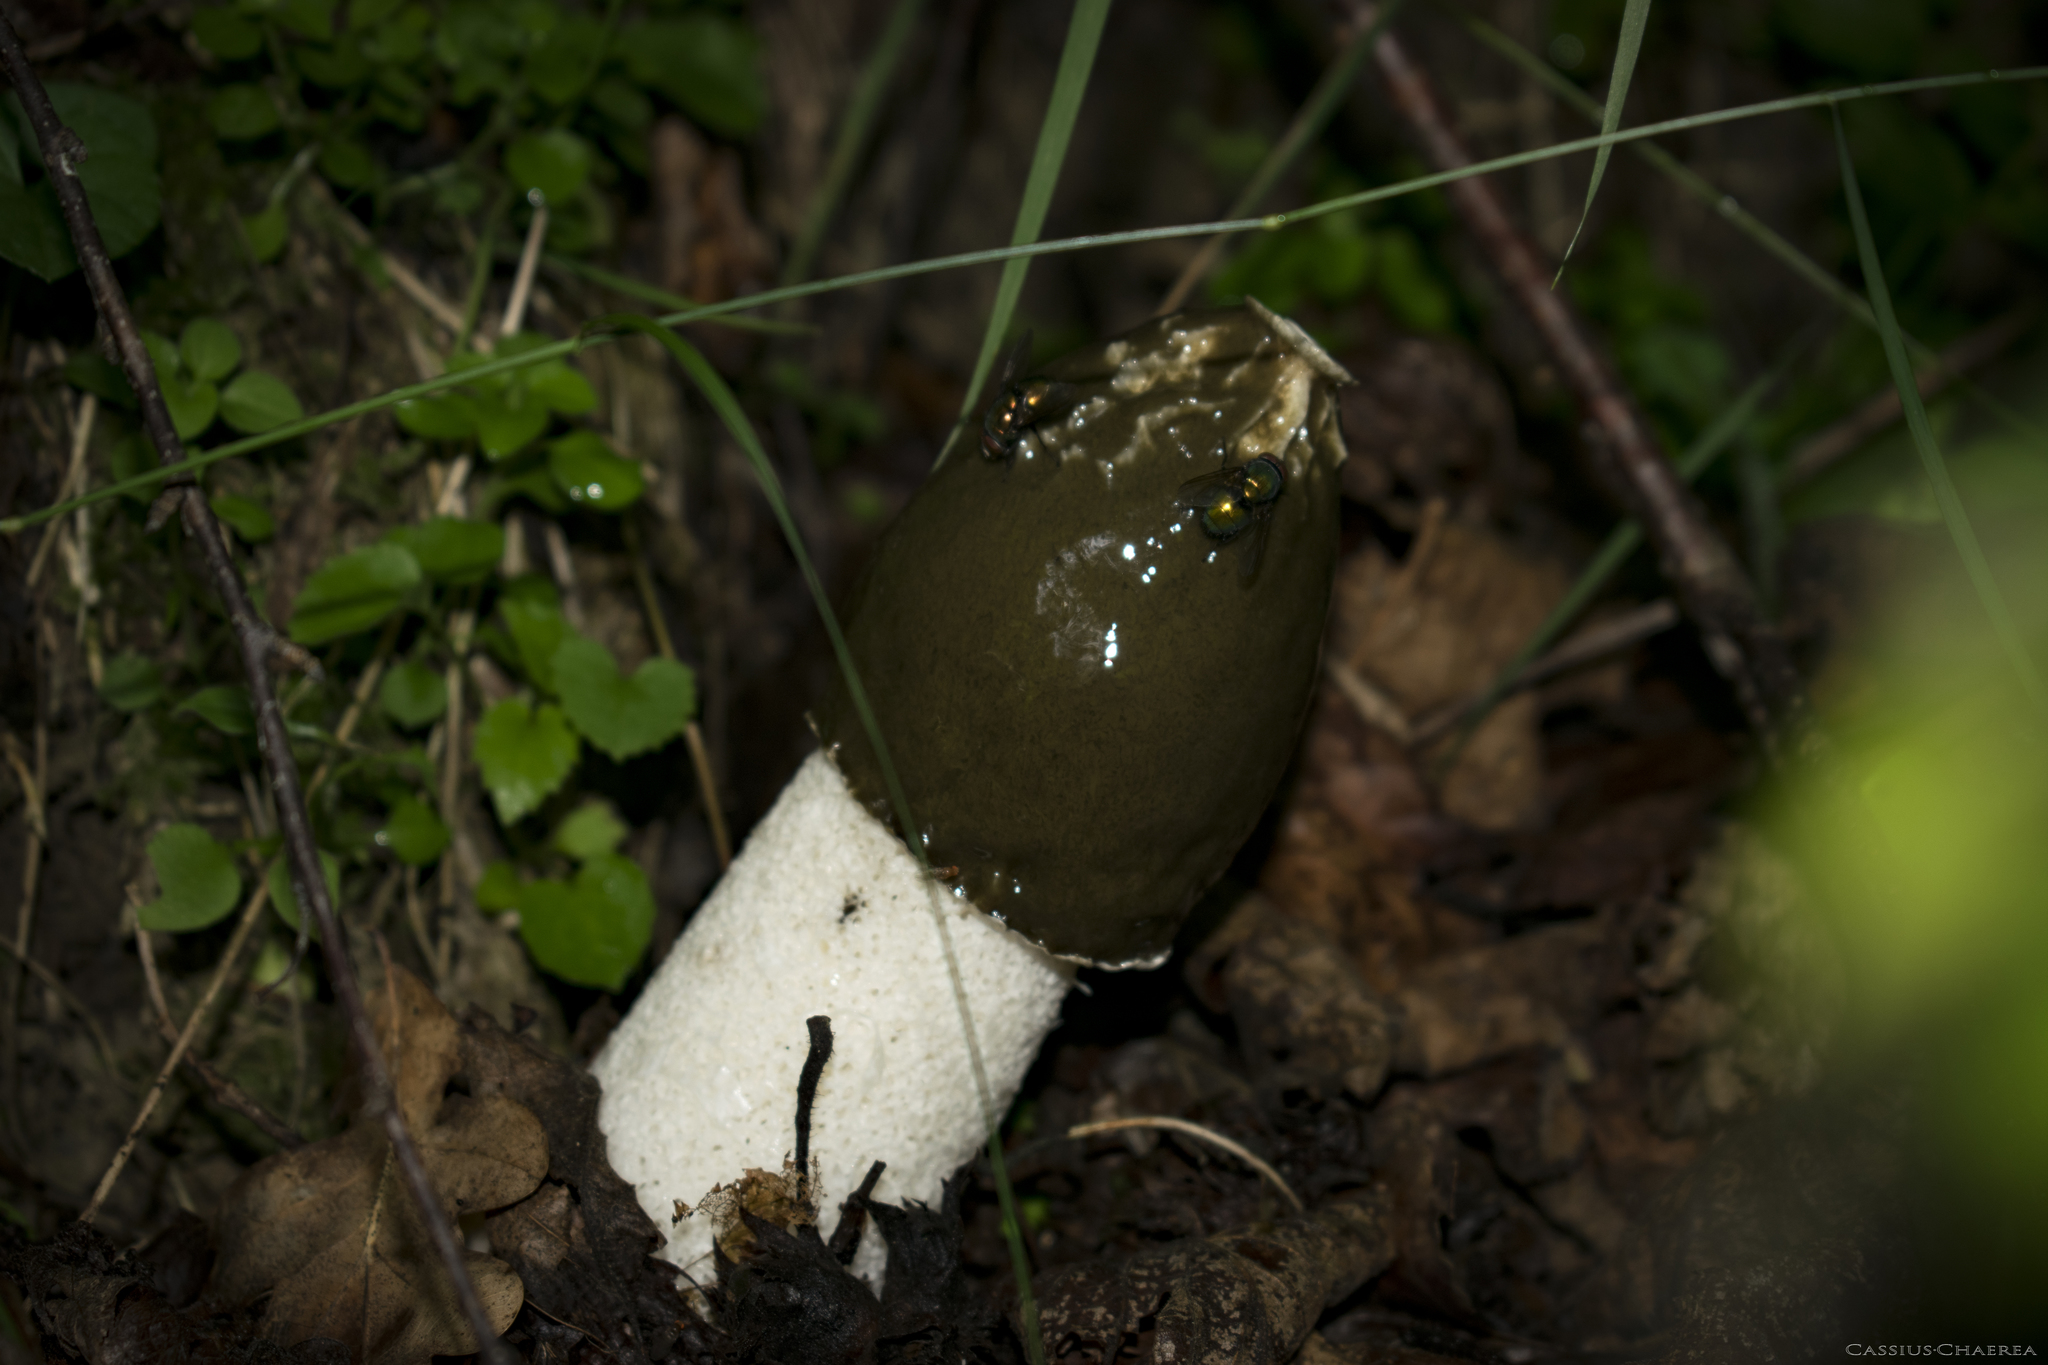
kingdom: Fungi
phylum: Basidiomycota
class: Agaricomycetes
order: Phallales
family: Phallaceae
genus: Phallus
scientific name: Phallus impudicus
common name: Common stinkhorn
